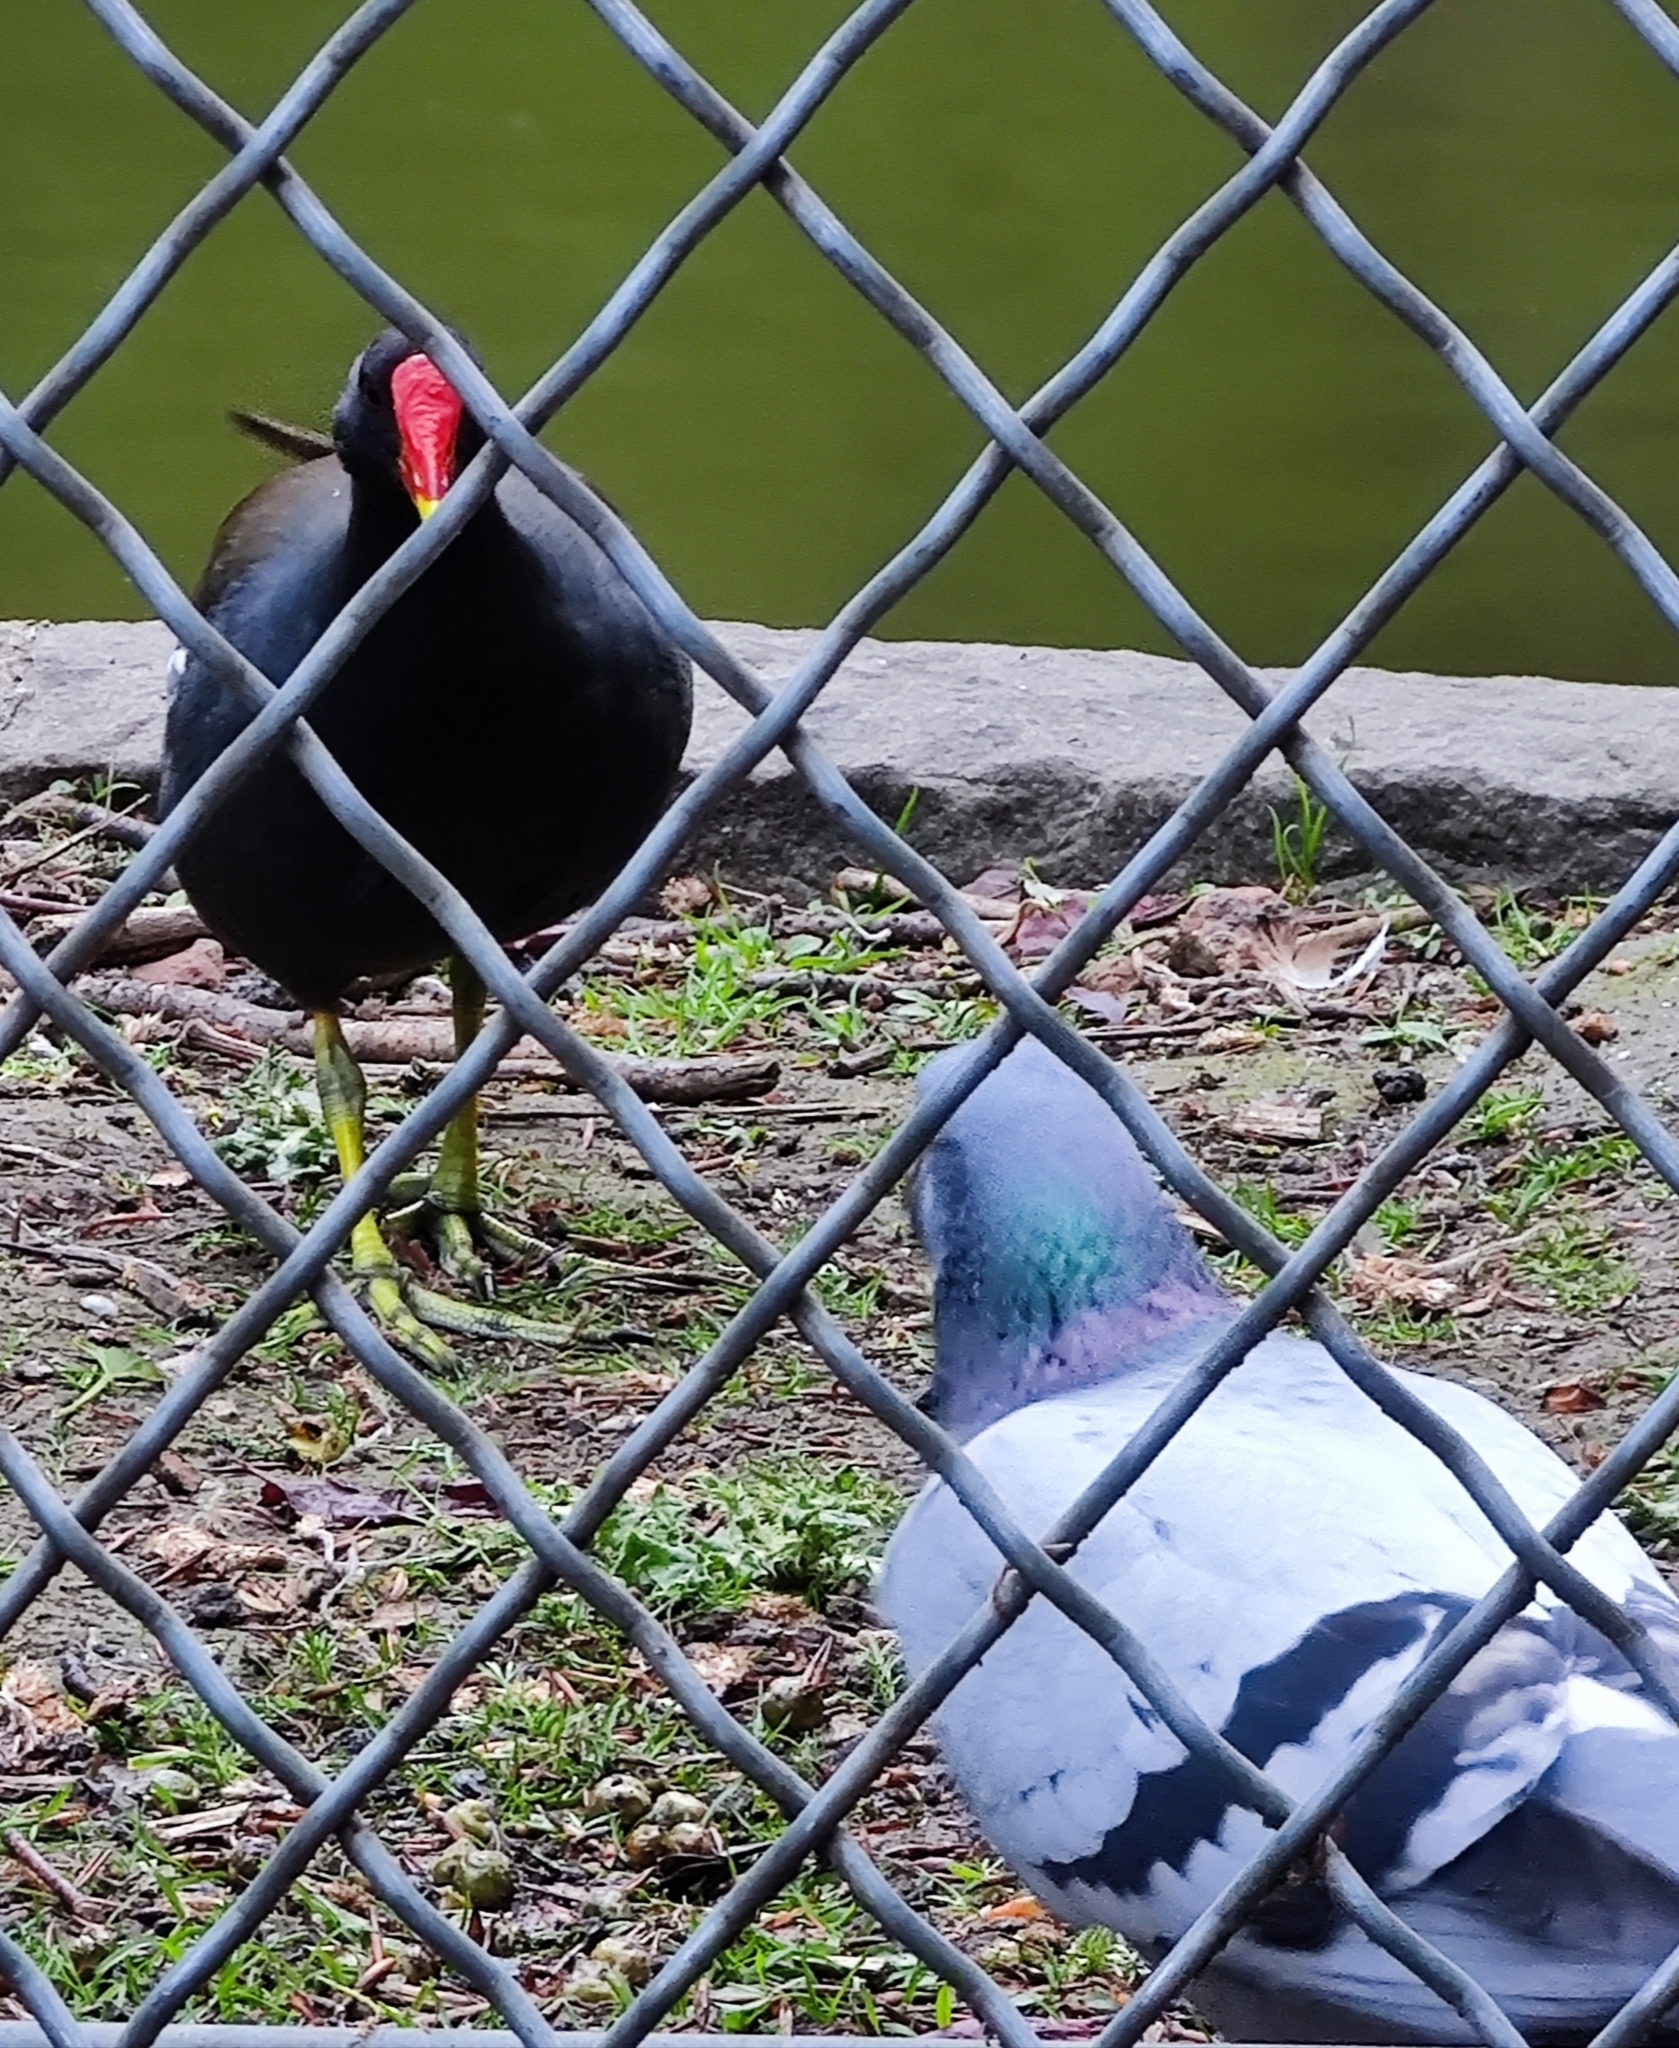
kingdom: Animalia
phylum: Chordata
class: Aves
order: Gruiformes
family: Rallidae
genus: Gallinula
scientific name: Gallinula chloropus
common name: Common moorhen
